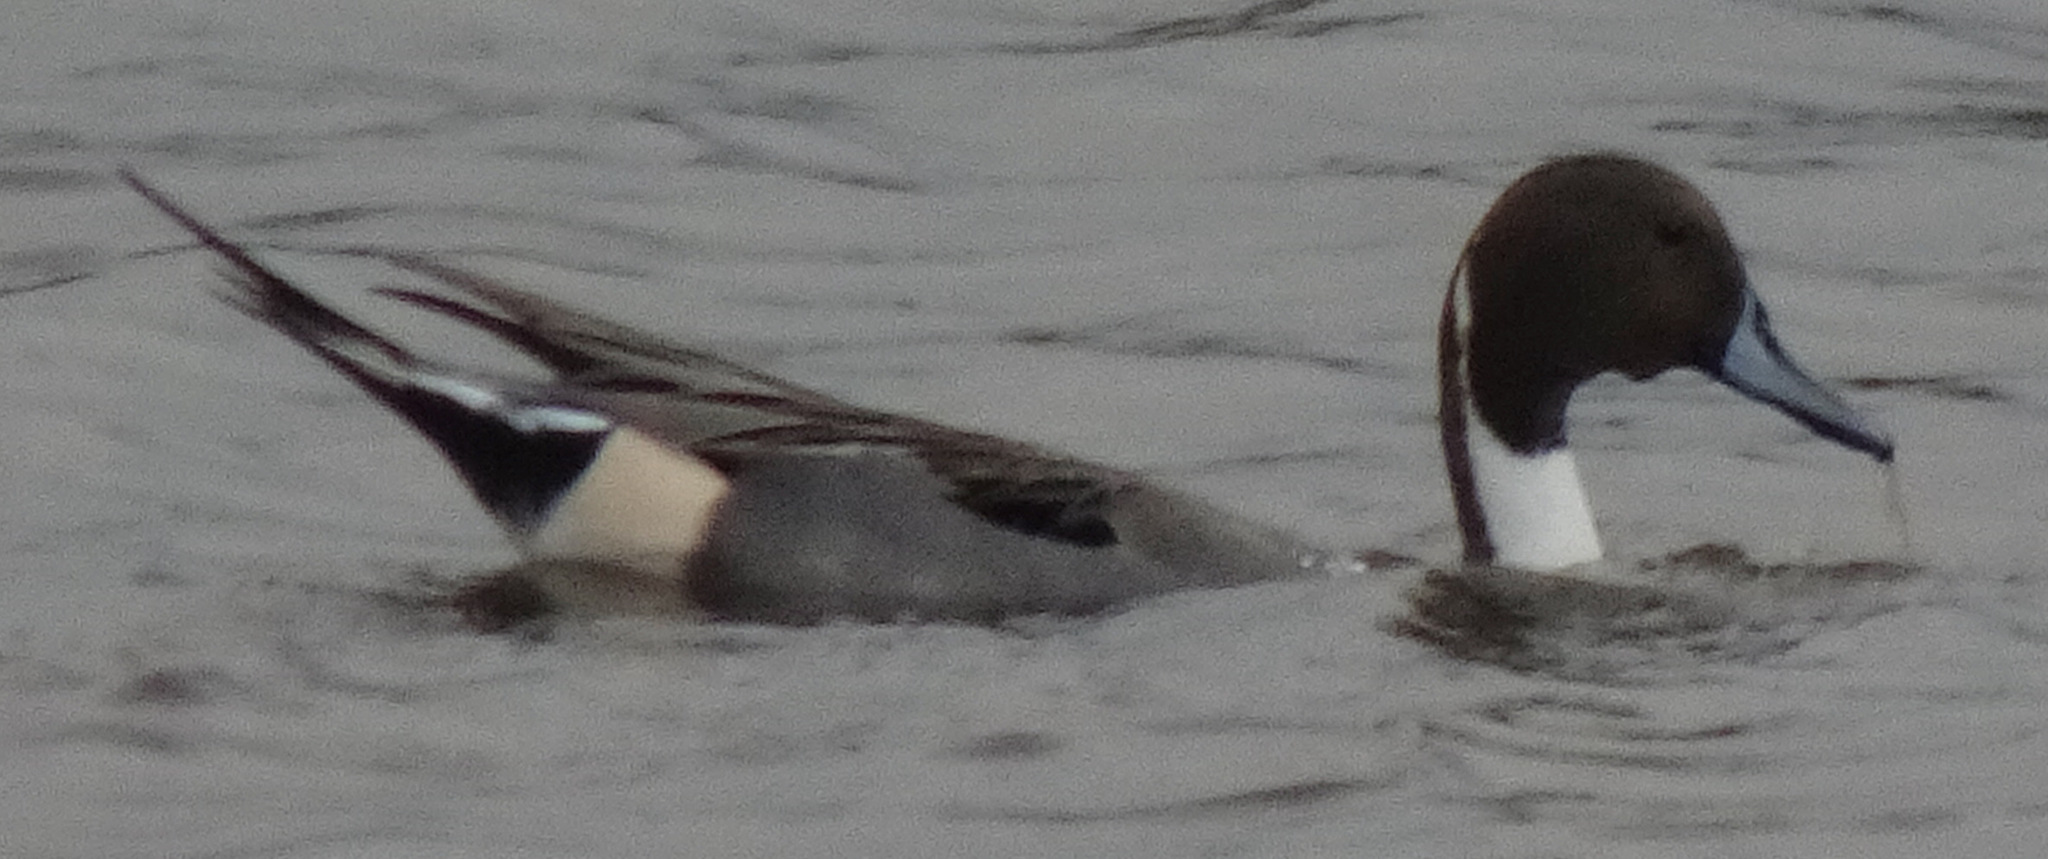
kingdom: Animalia
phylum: Chordata
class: Aves
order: Anseriformes
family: Anatidae
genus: Anas
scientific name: Anas acuta
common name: Northern pintail
